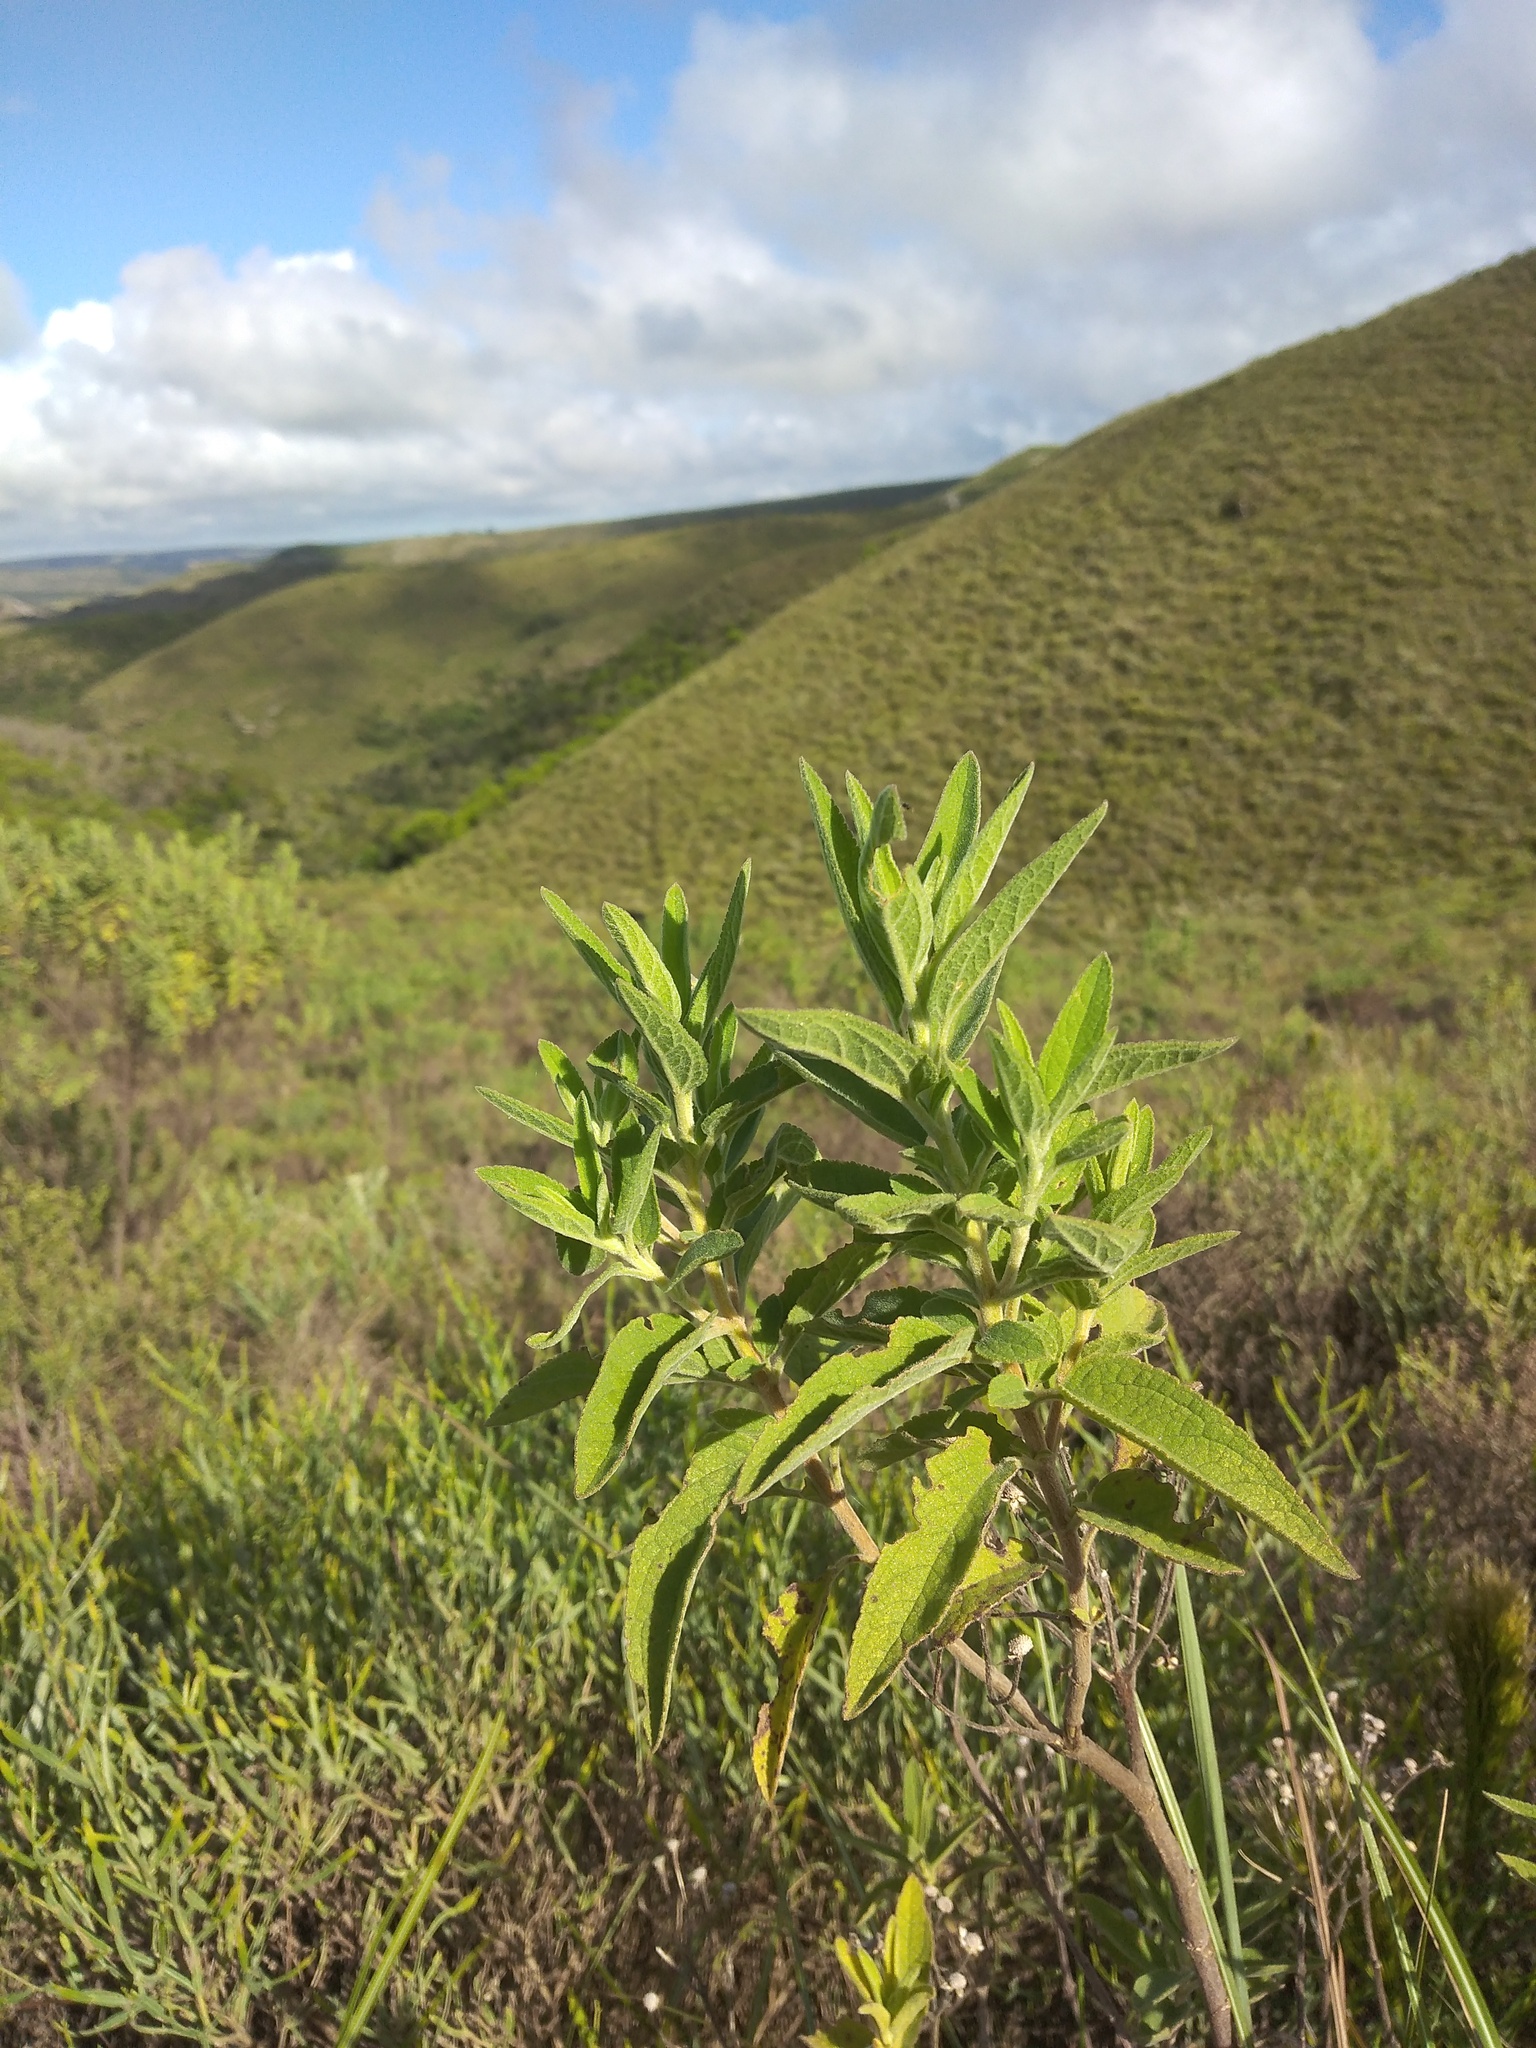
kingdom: Plantae
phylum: Tracheophyta
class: Magnoliopsida
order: Asterales
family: Asteraceae
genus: Radlkoferotoma
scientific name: Radlkoferotoma cistifolium
